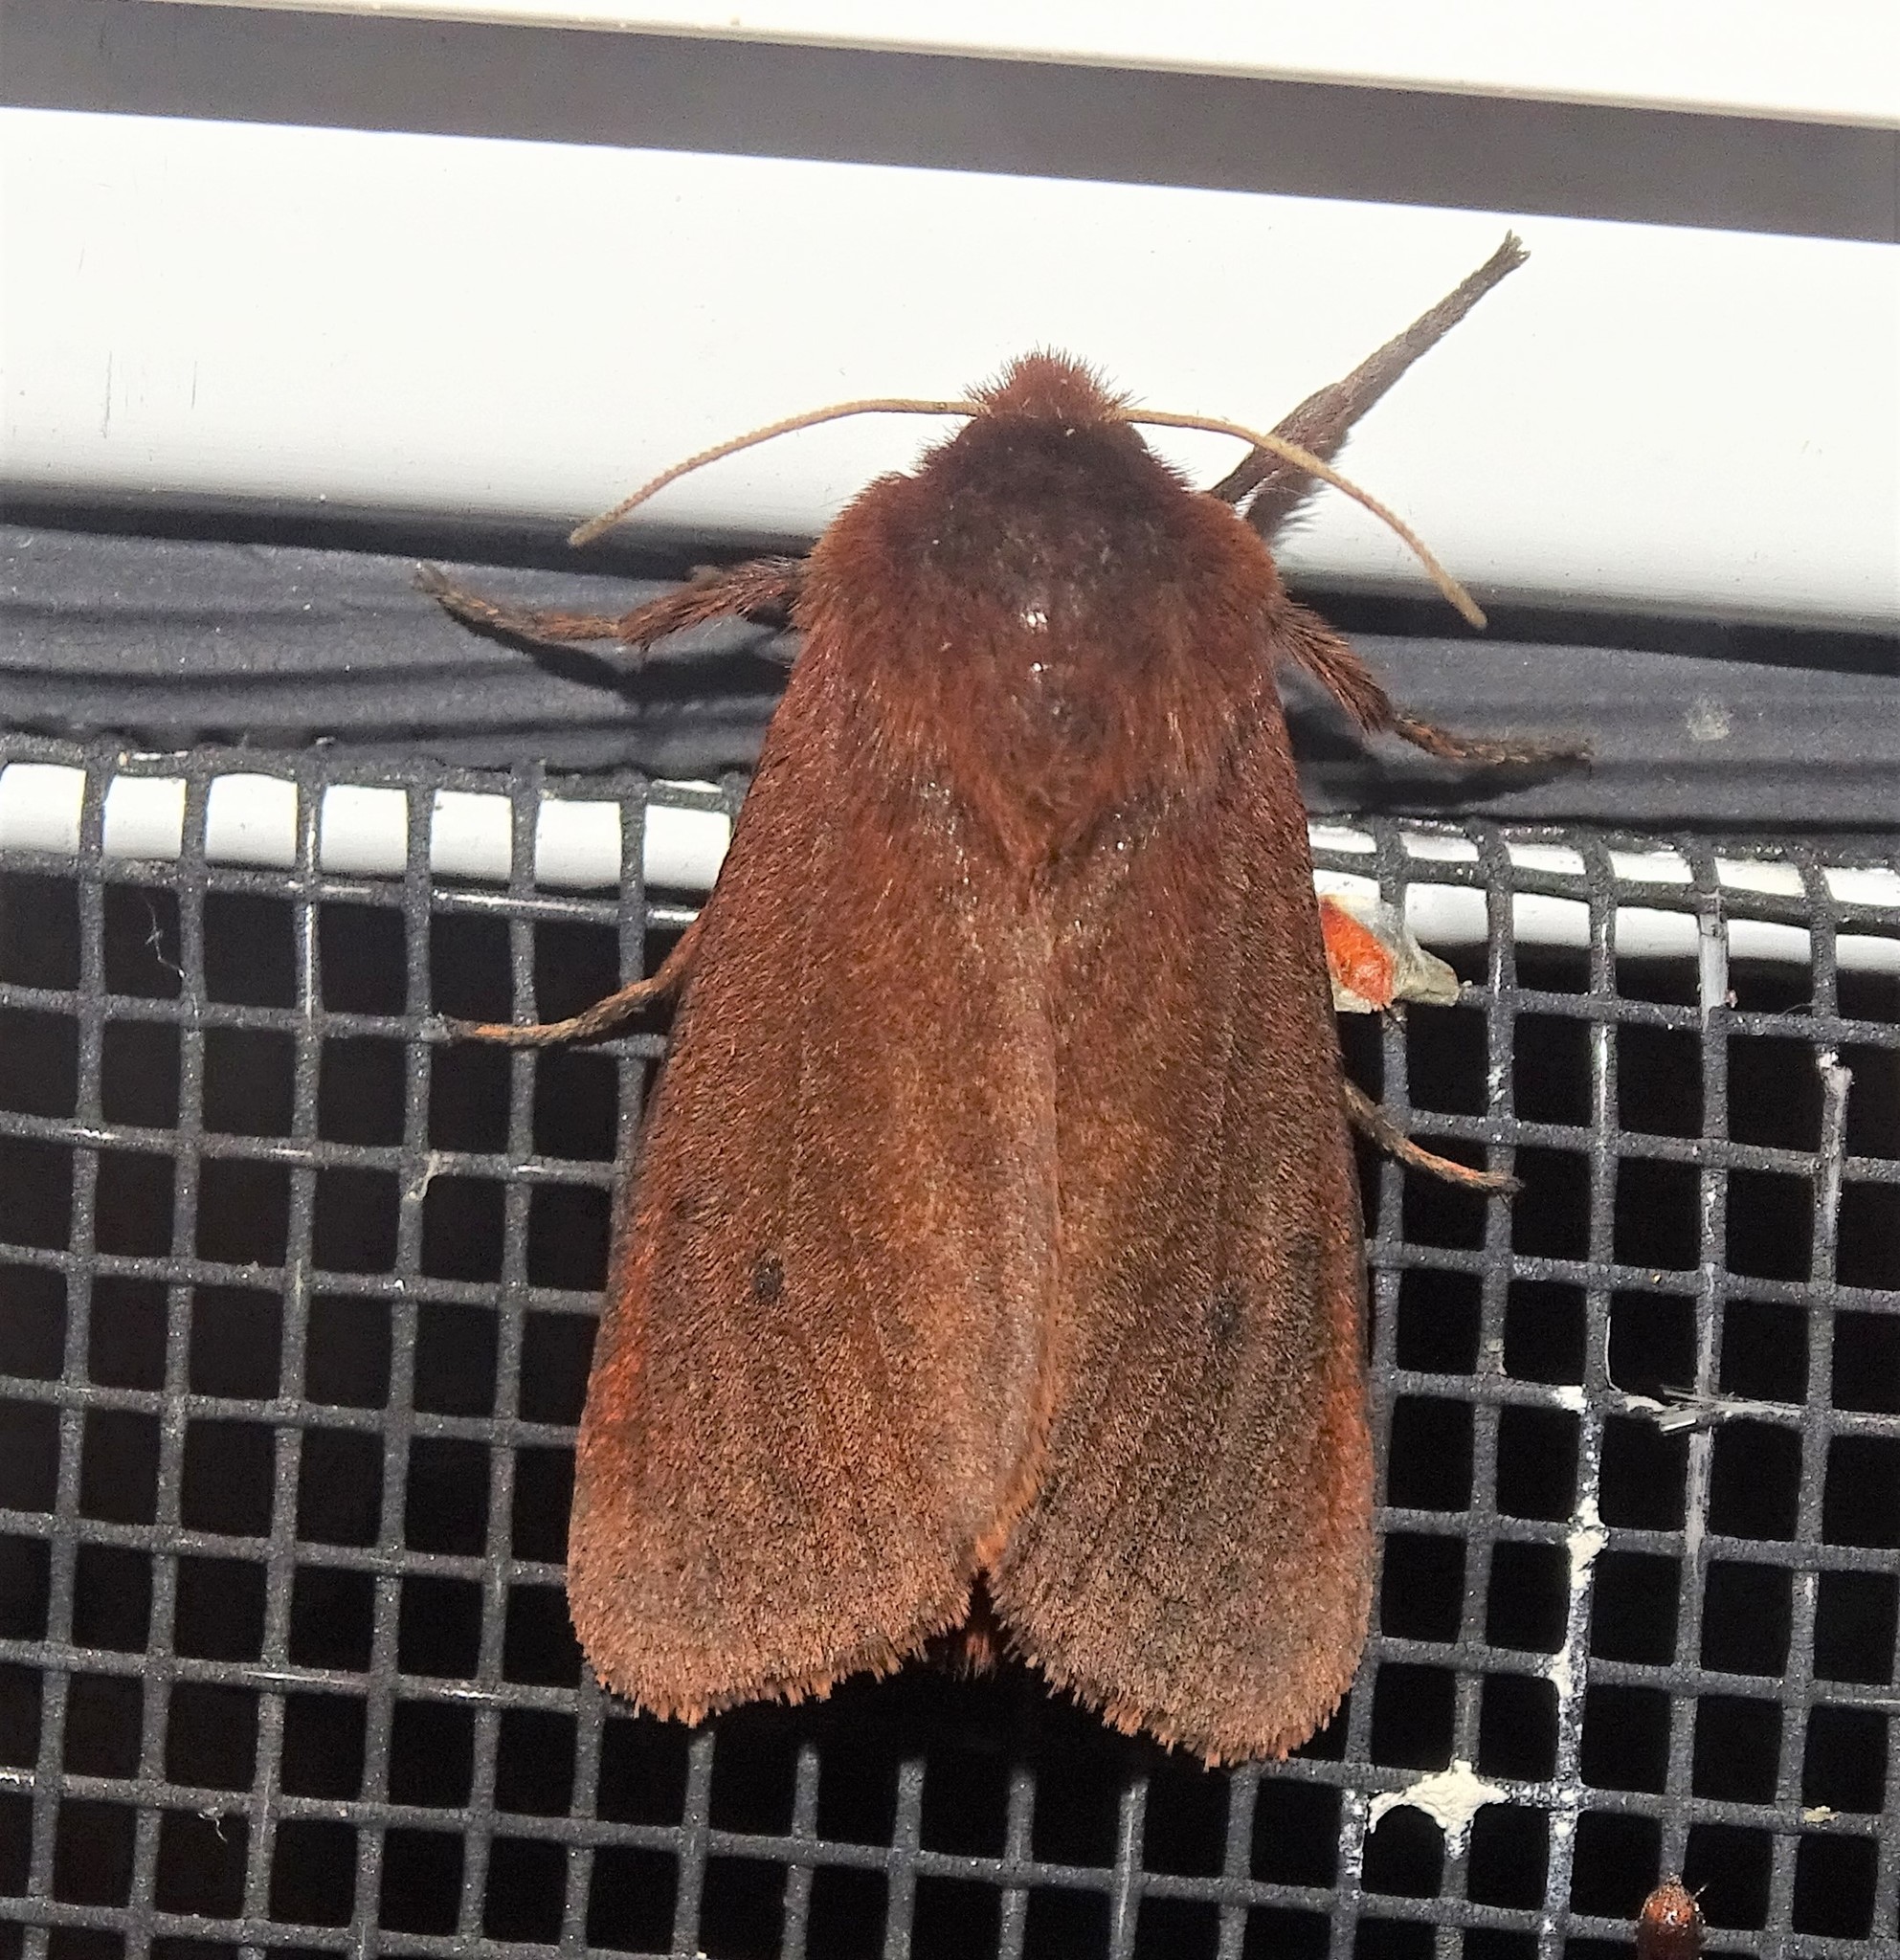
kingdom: Animalia
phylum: Arthropoda
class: Insecta
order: Lepidoptera
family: Erebidae
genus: Phragmatobia
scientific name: Phragmatobia fuliginosa
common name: Ruby tiger
